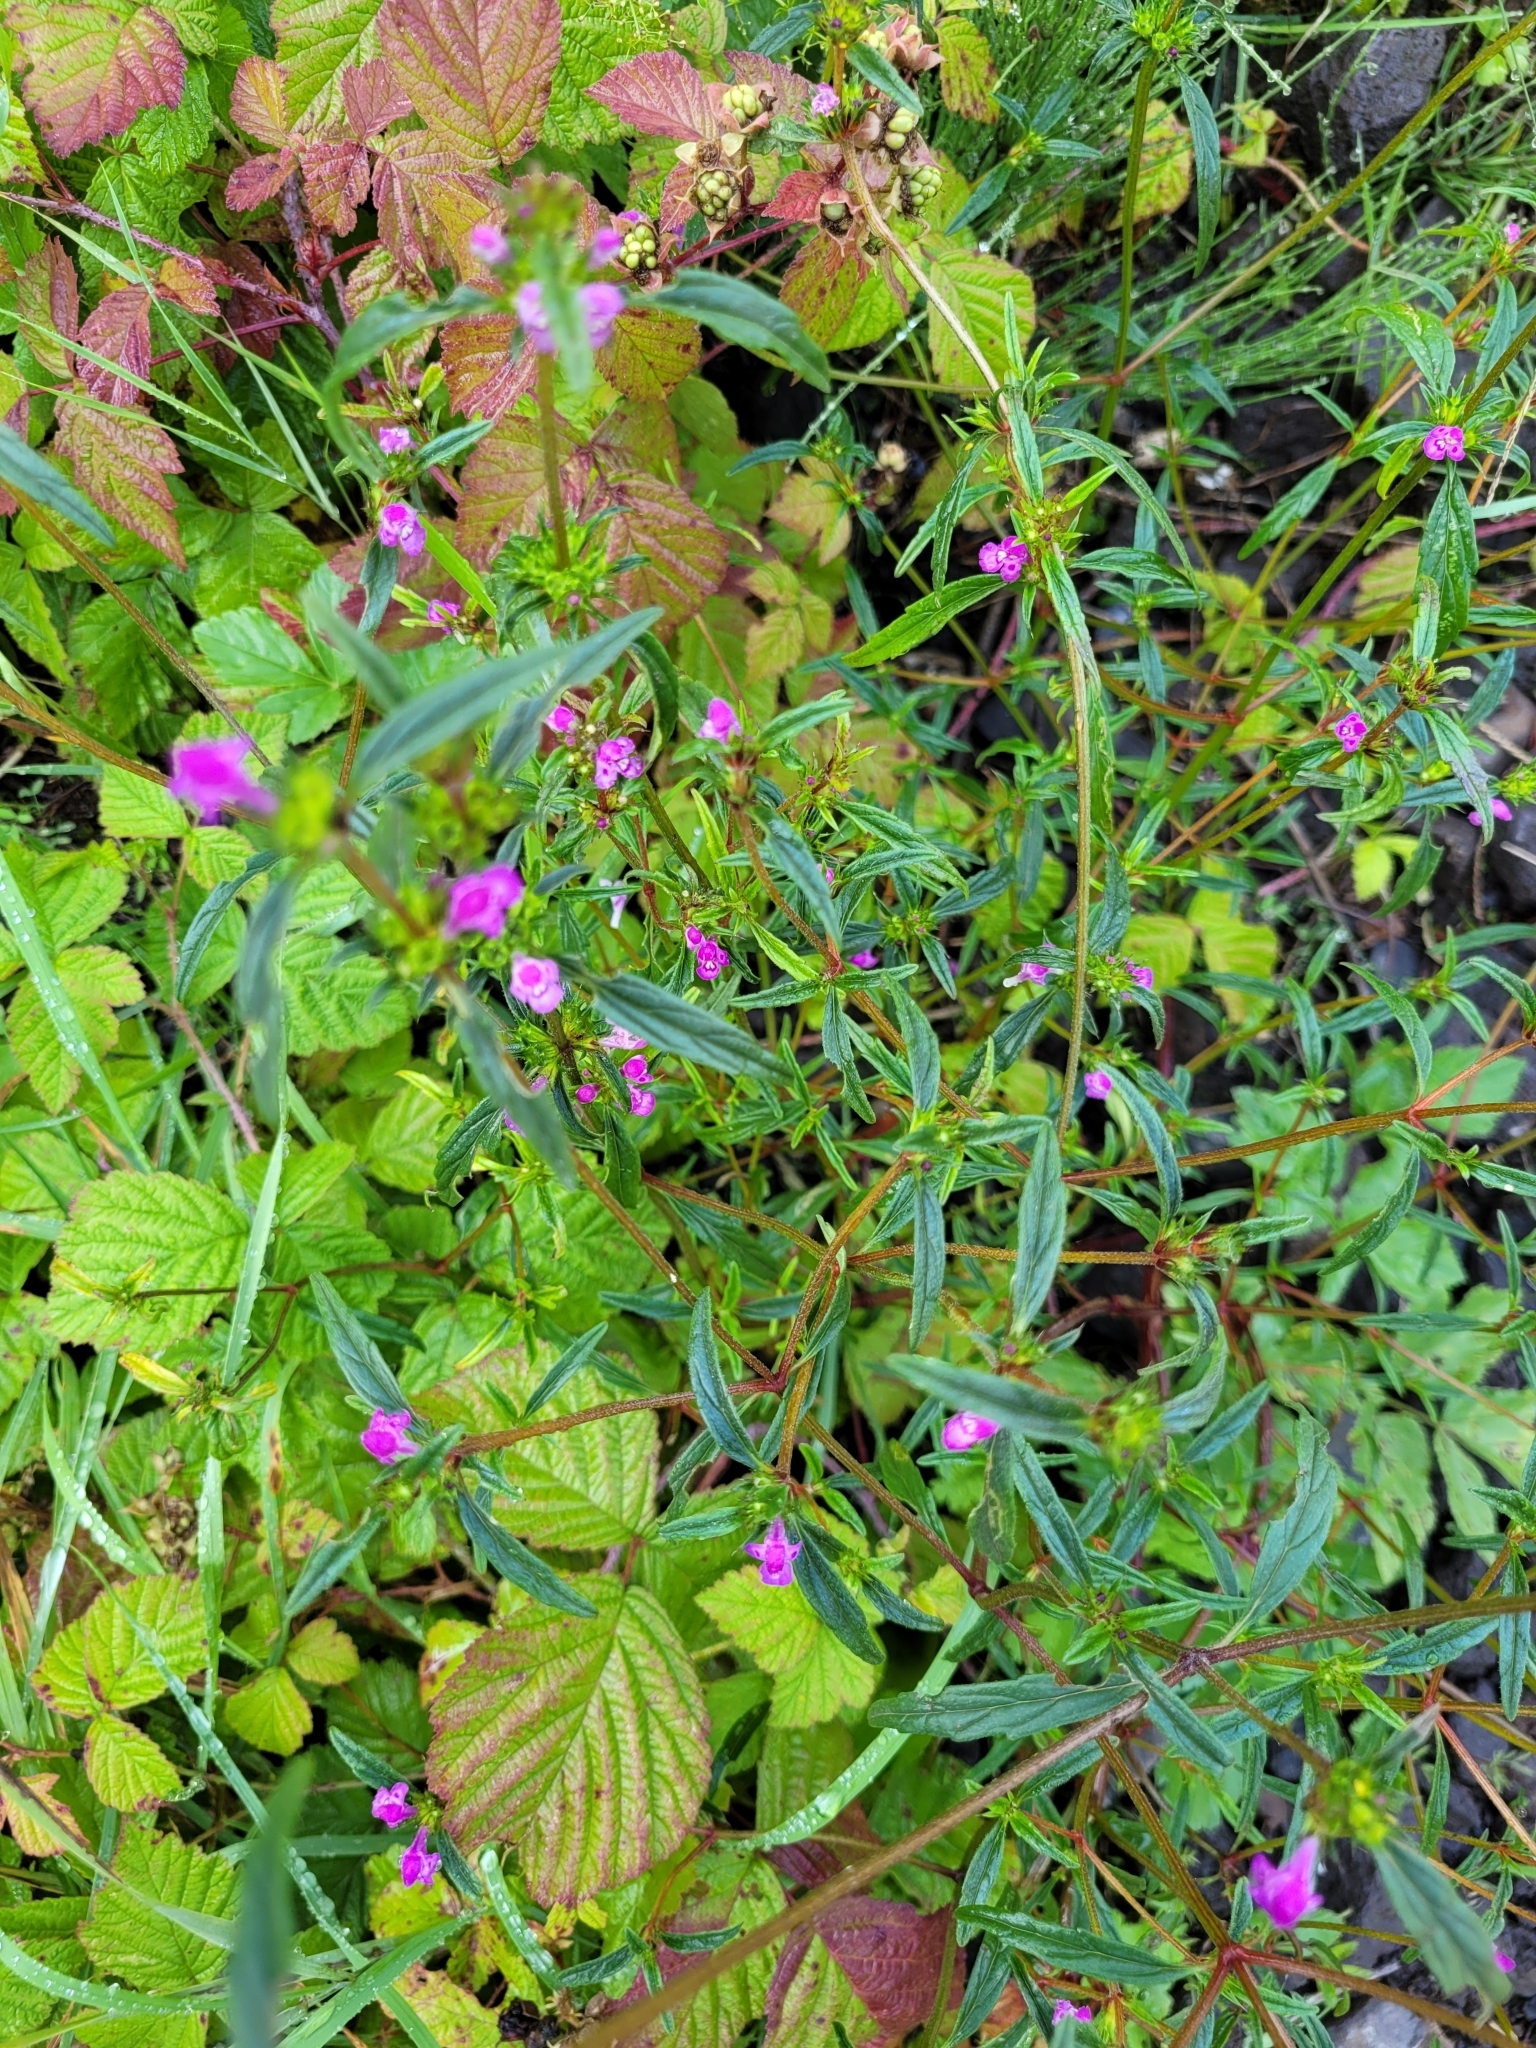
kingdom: Plantae
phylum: Tracheophyta
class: Magnoliopsida
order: Lamiales
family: Lamiaceae
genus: Galeopsis
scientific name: Galeopsis angustifolia
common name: Red hemp-nettle
